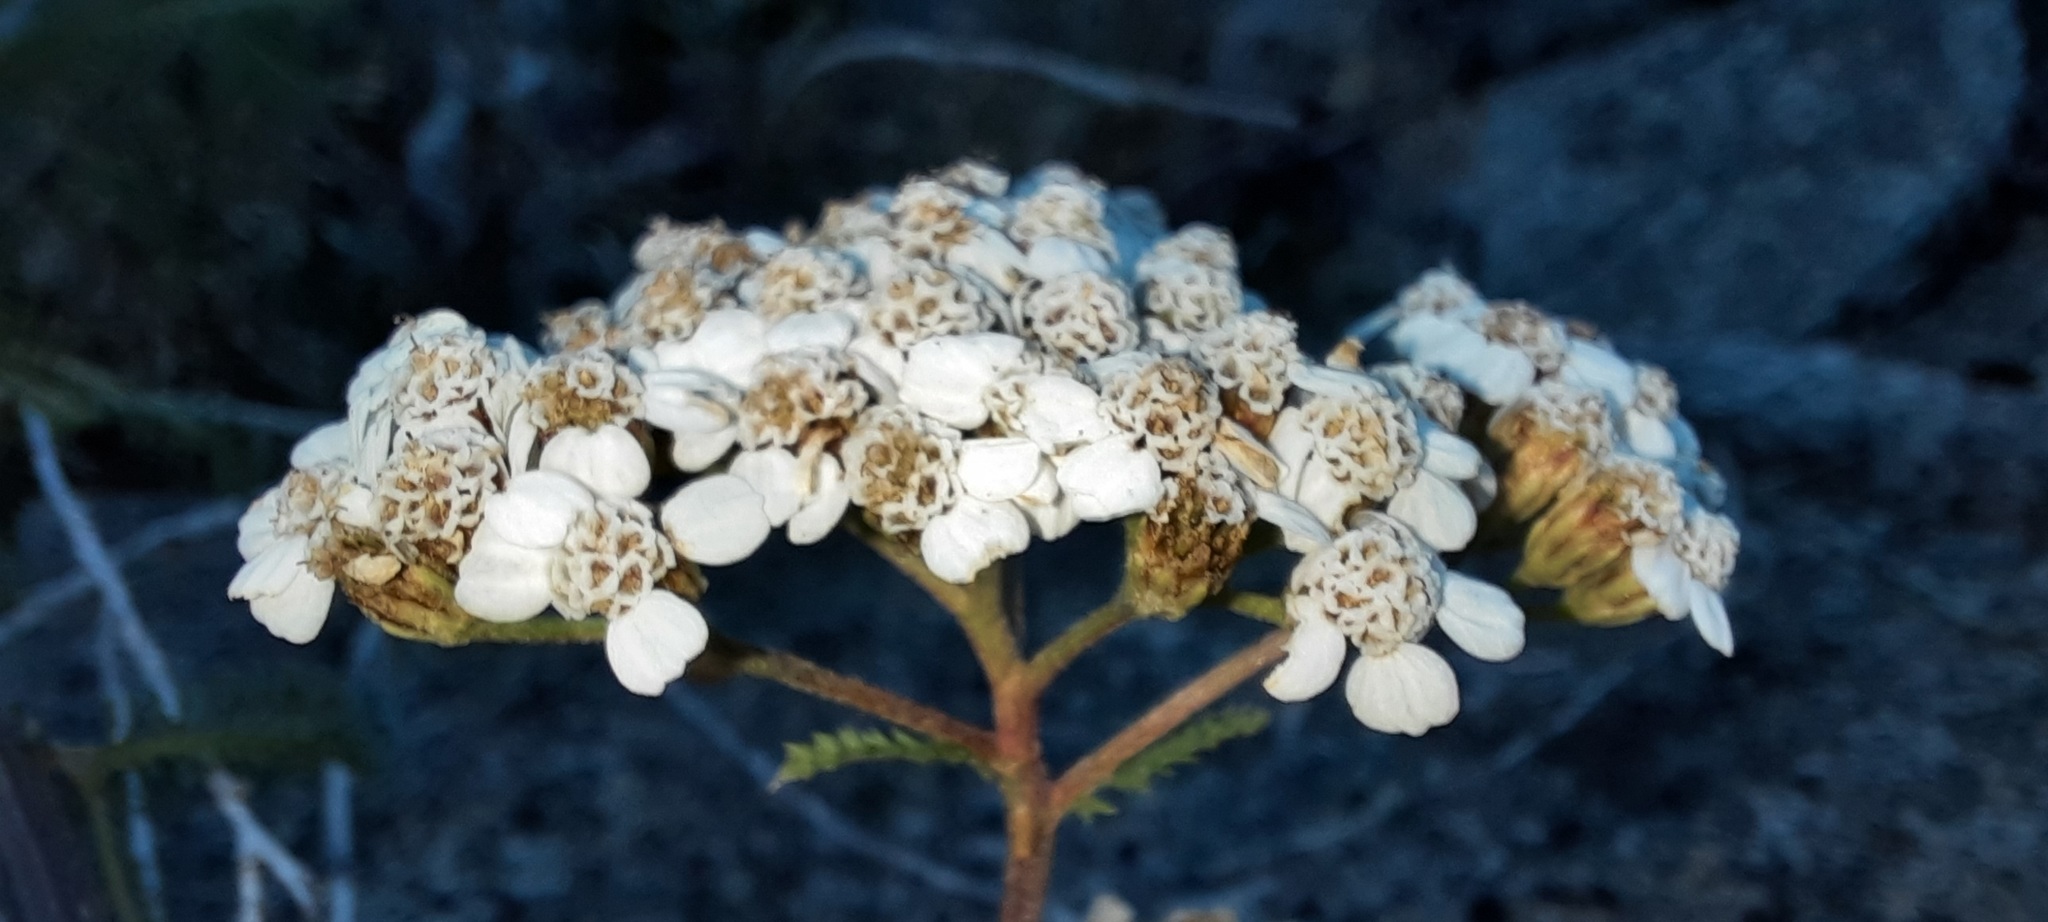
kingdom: Plantae
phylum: Tracheophyta
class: Magnoliopsida
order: Asterales
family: Asteraceae
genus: Achillea
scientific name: Achillea millefolium
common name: Yarrow
